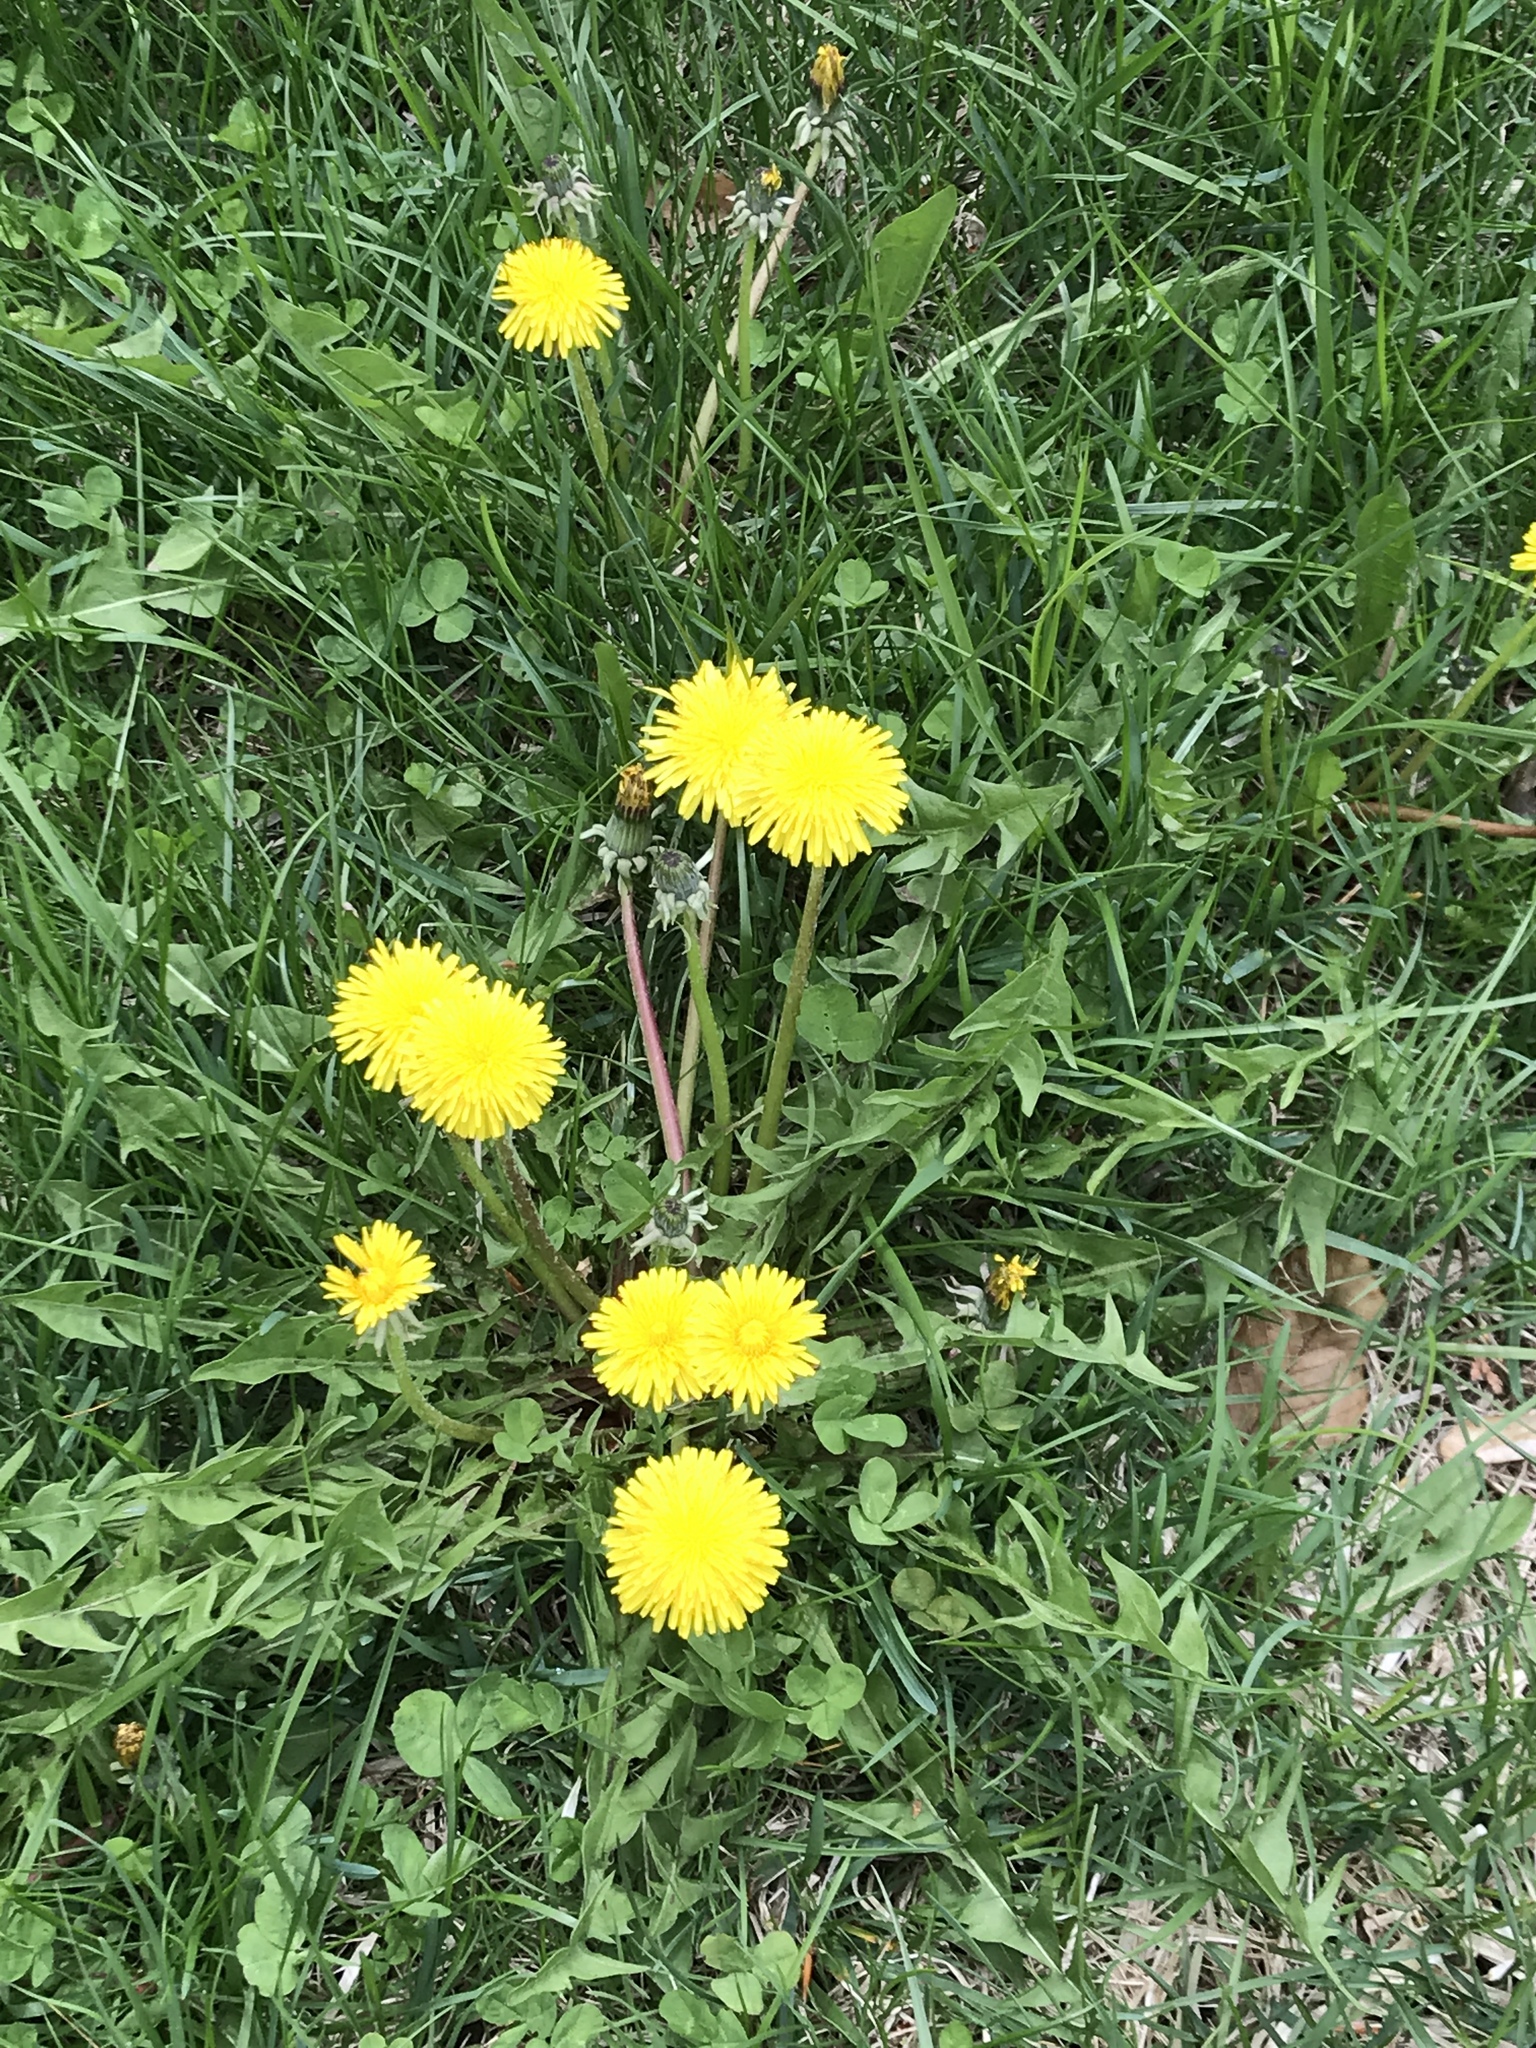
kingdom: Plantae
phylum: Tracheophyta
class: Magnoliopsida
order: Asterales
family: Asteraceae
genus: Taraxacum
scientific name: Taraxacum officinale
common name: Common dandelion
